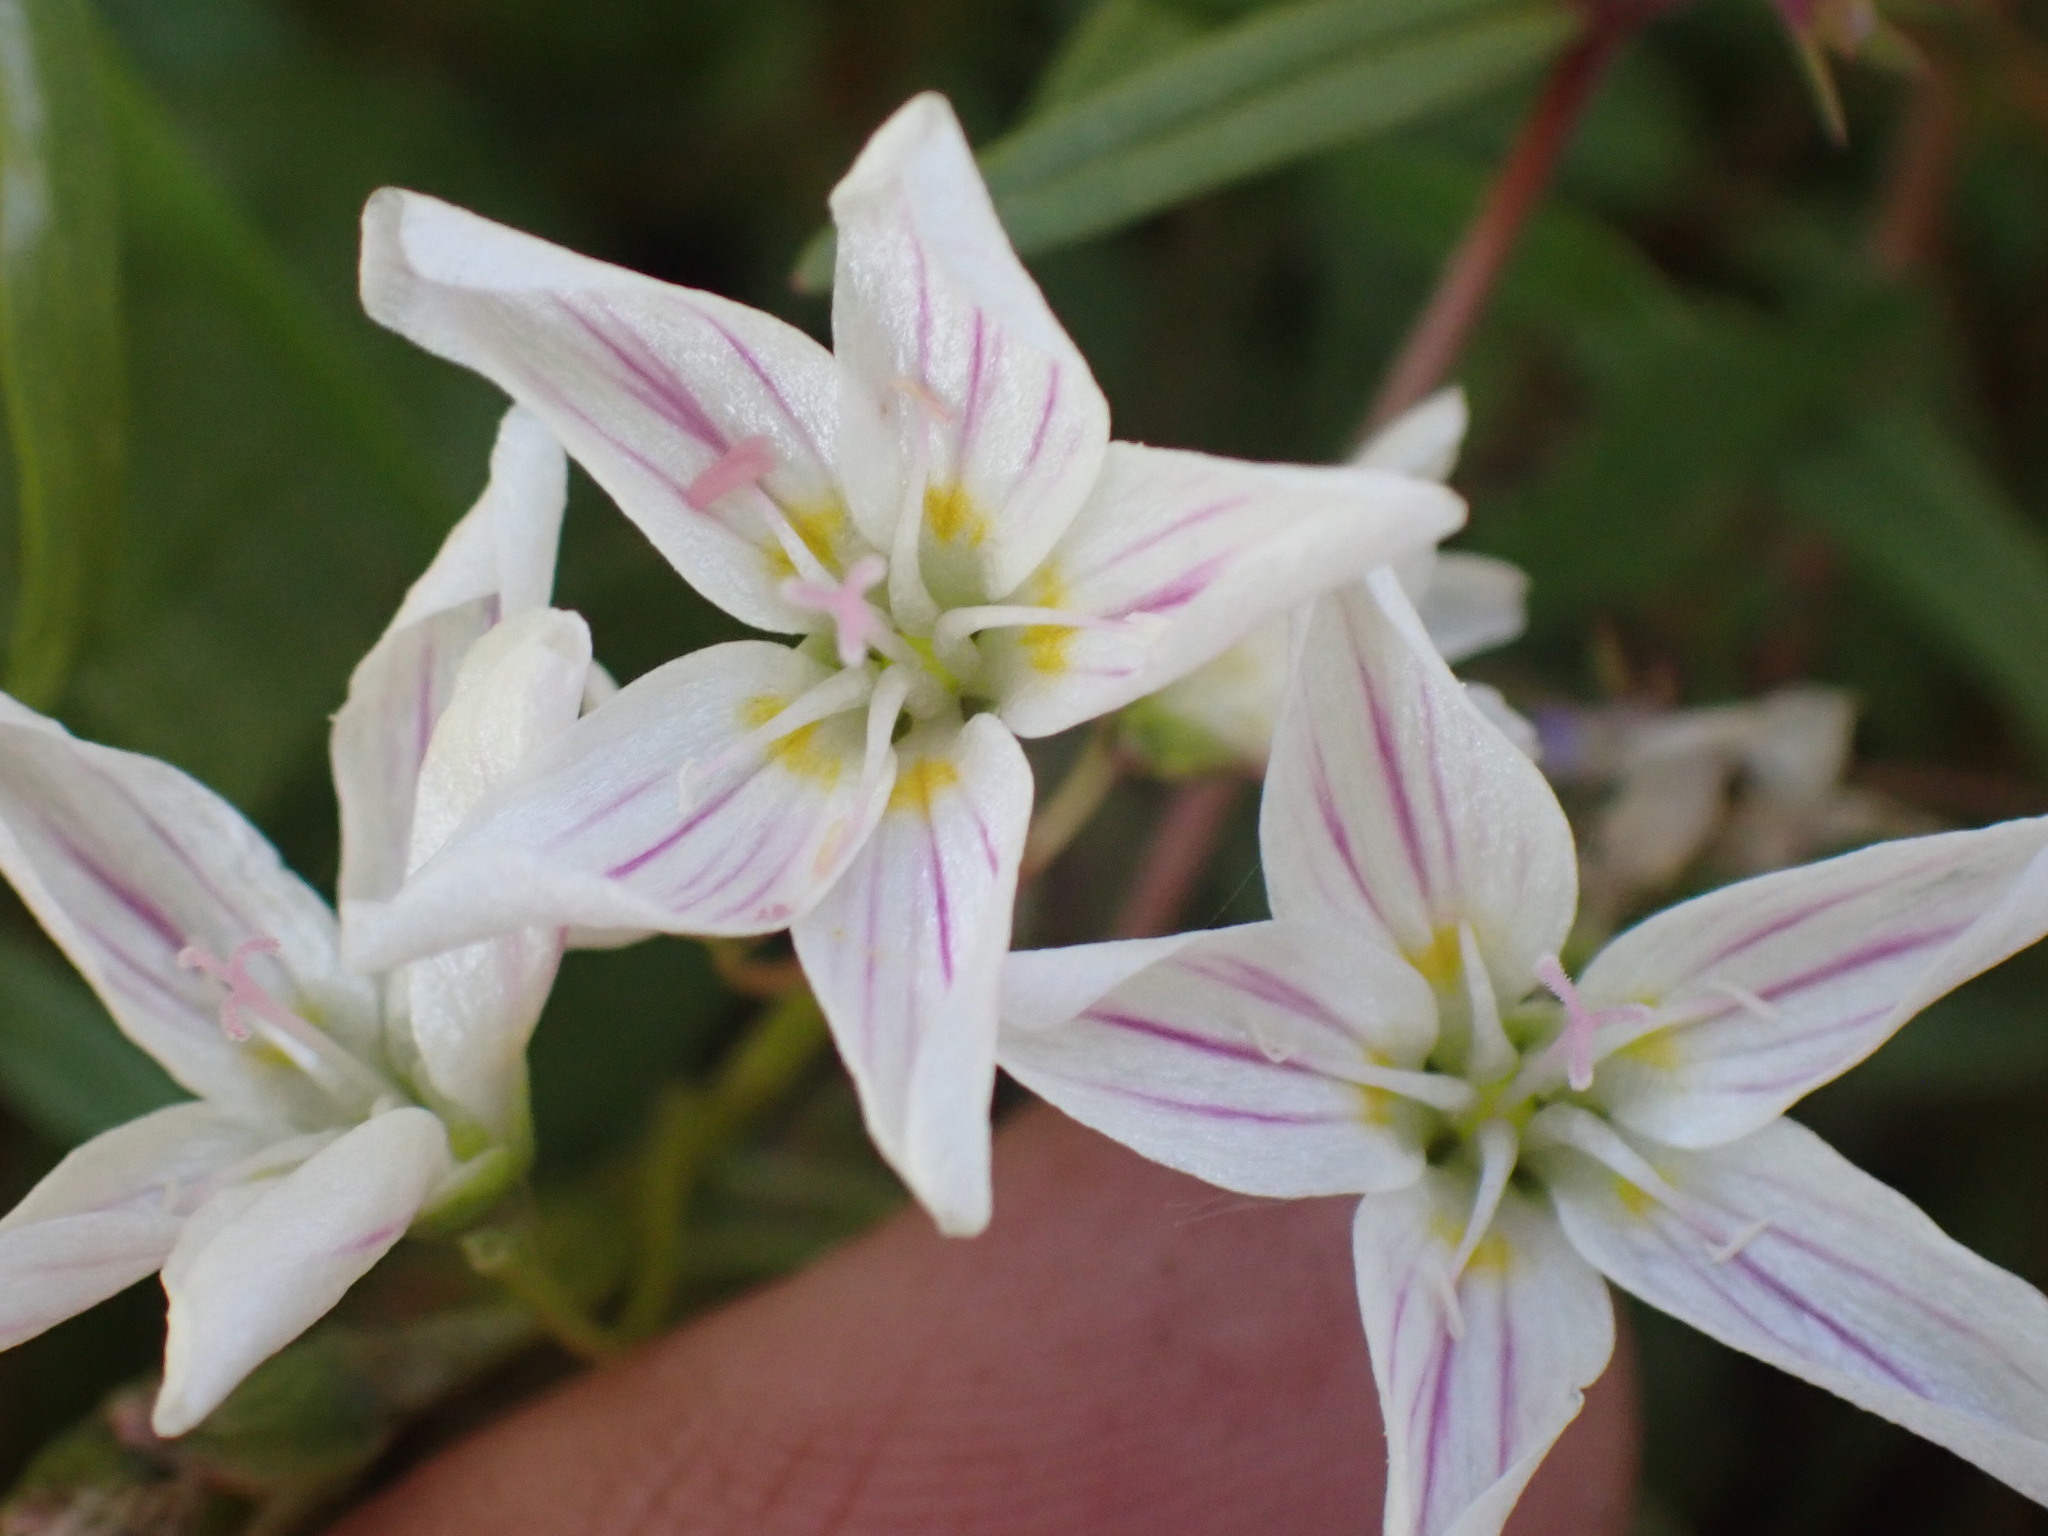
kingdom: Plantae
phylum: Tracheophyta
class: Magnoliopsida
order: Caryophyllales
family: Montiaceae
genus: Claytonia
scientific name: Claytonia lanceolata
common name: Western spring-beauty
